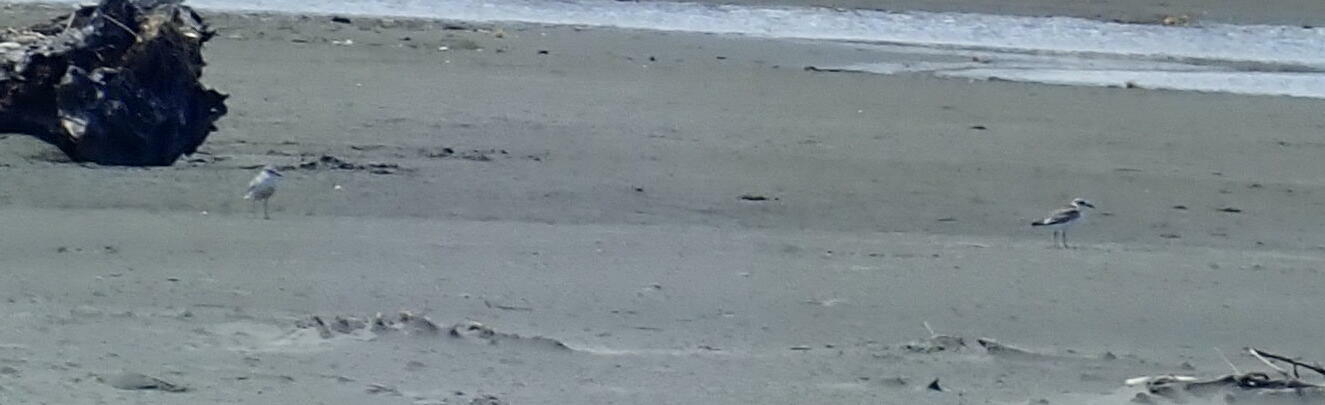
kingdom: Animalia
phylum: Chordata
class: Aves
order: Charadriiformes
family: Charadriidae
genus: Anarhynchus
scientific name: Anarhynchus
